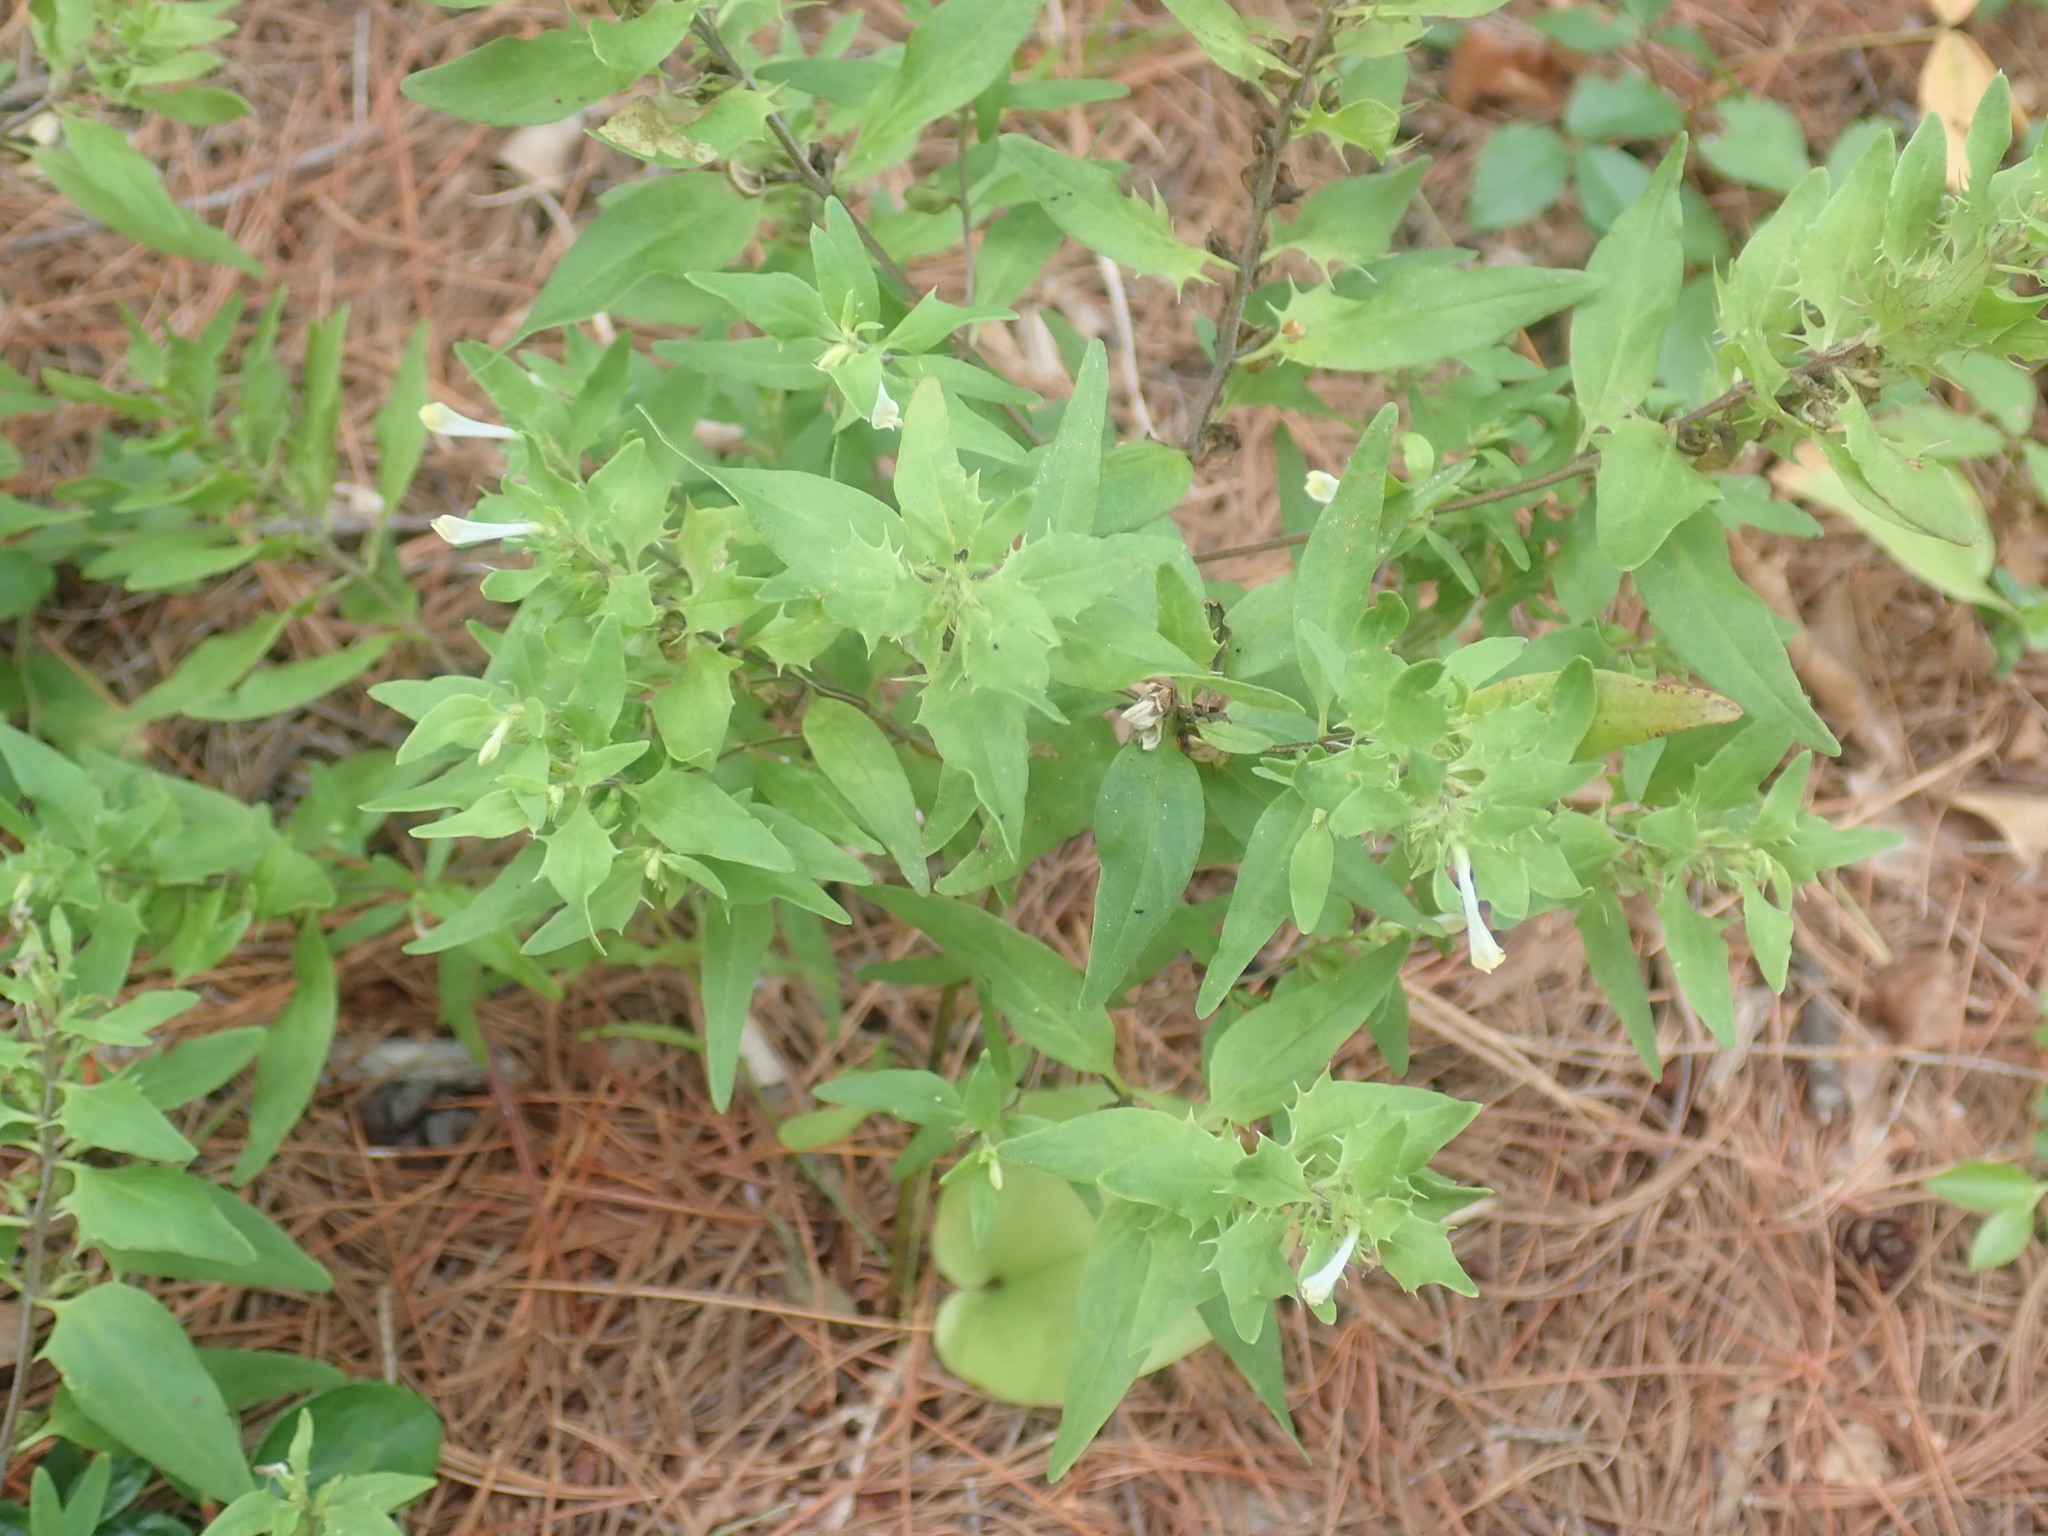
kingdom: Plantae
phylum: Tracheophyta
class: Magnoliopsida
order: Lamiales
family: Orobanchaceae
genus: Melampyrum
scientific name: Melampyrum lineare
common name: American cow-wheat
